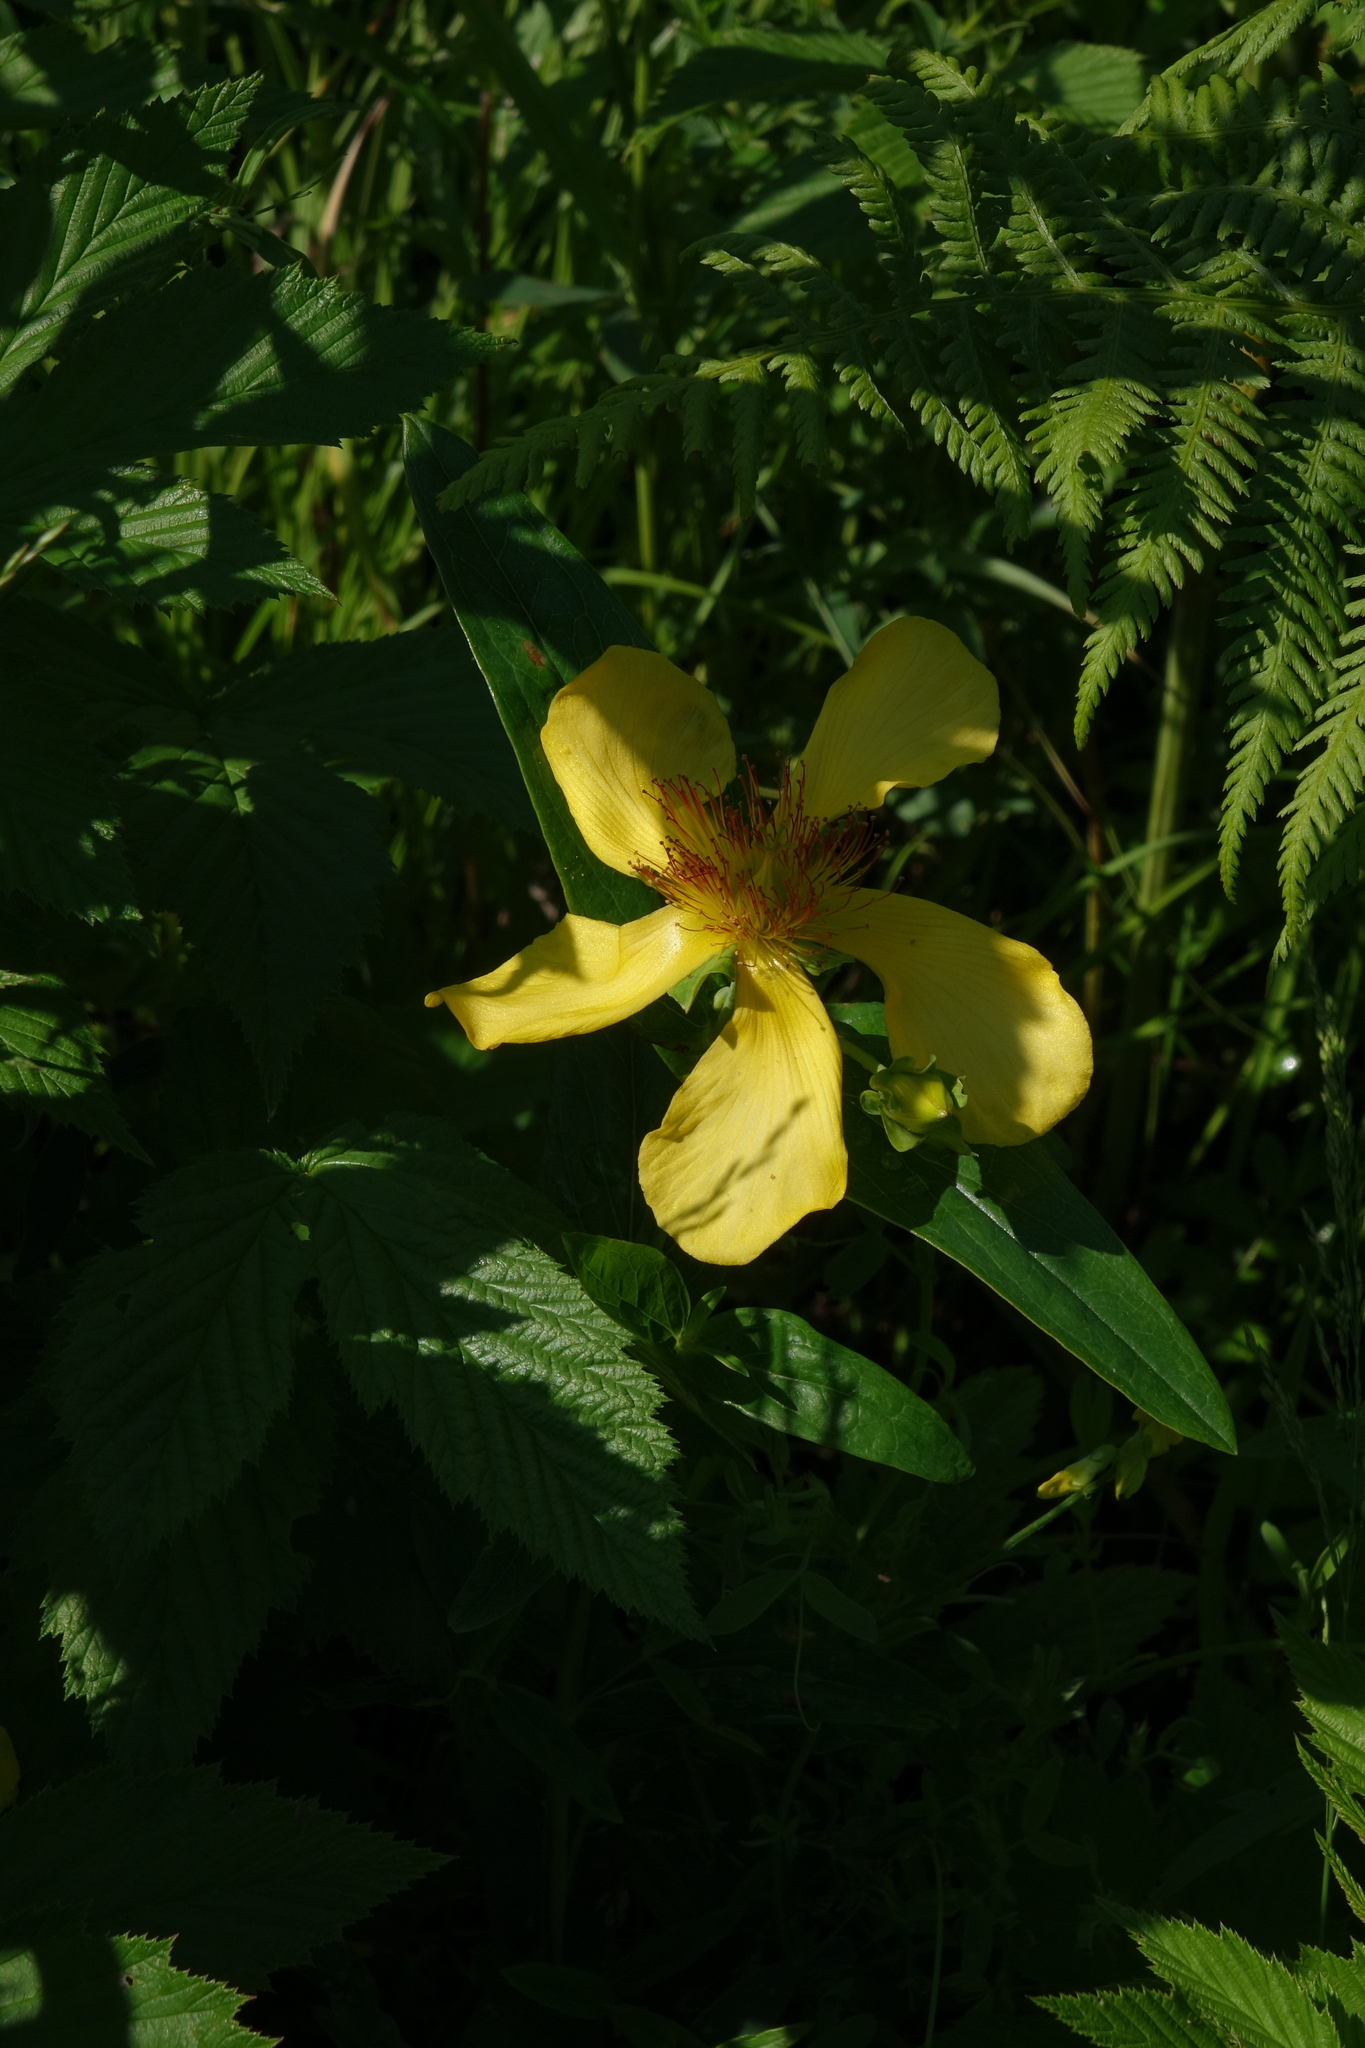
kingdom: Plantae
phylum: Tracheophyta
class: Magnoliopsida
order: Malpighiales
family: Hypericaceae
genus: Hypericum
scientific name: Hypericum ascyron
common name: Giant st. john's-wort
